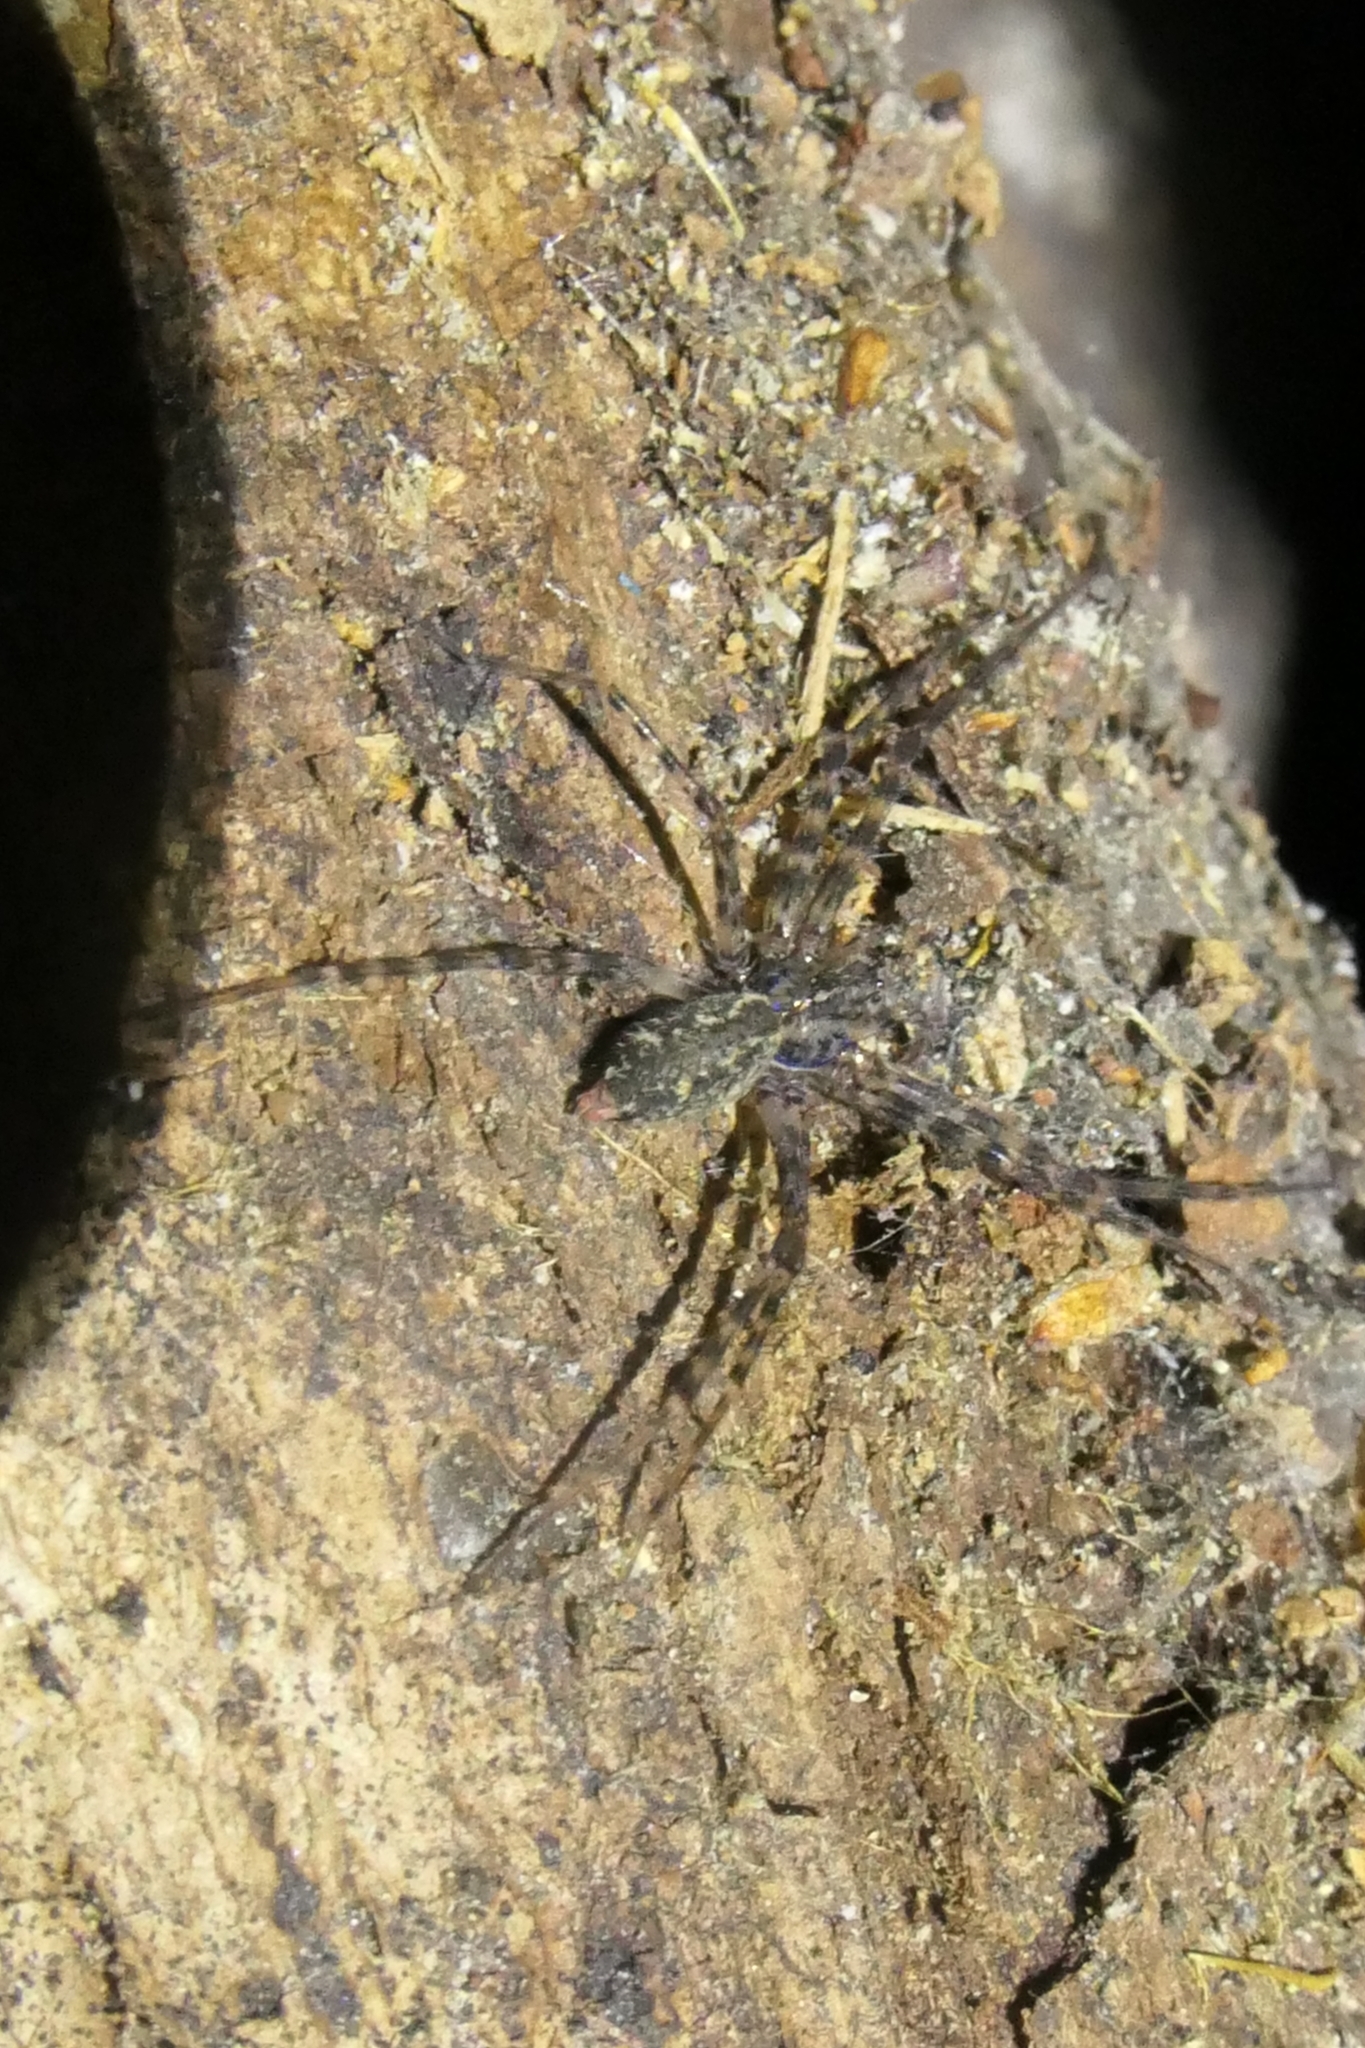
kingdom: Animalia
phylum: Arthropoda
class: Arachnida
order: Araneae
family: Stiphidiidae
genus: Stiphidion
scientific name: Stiphidion facetum
